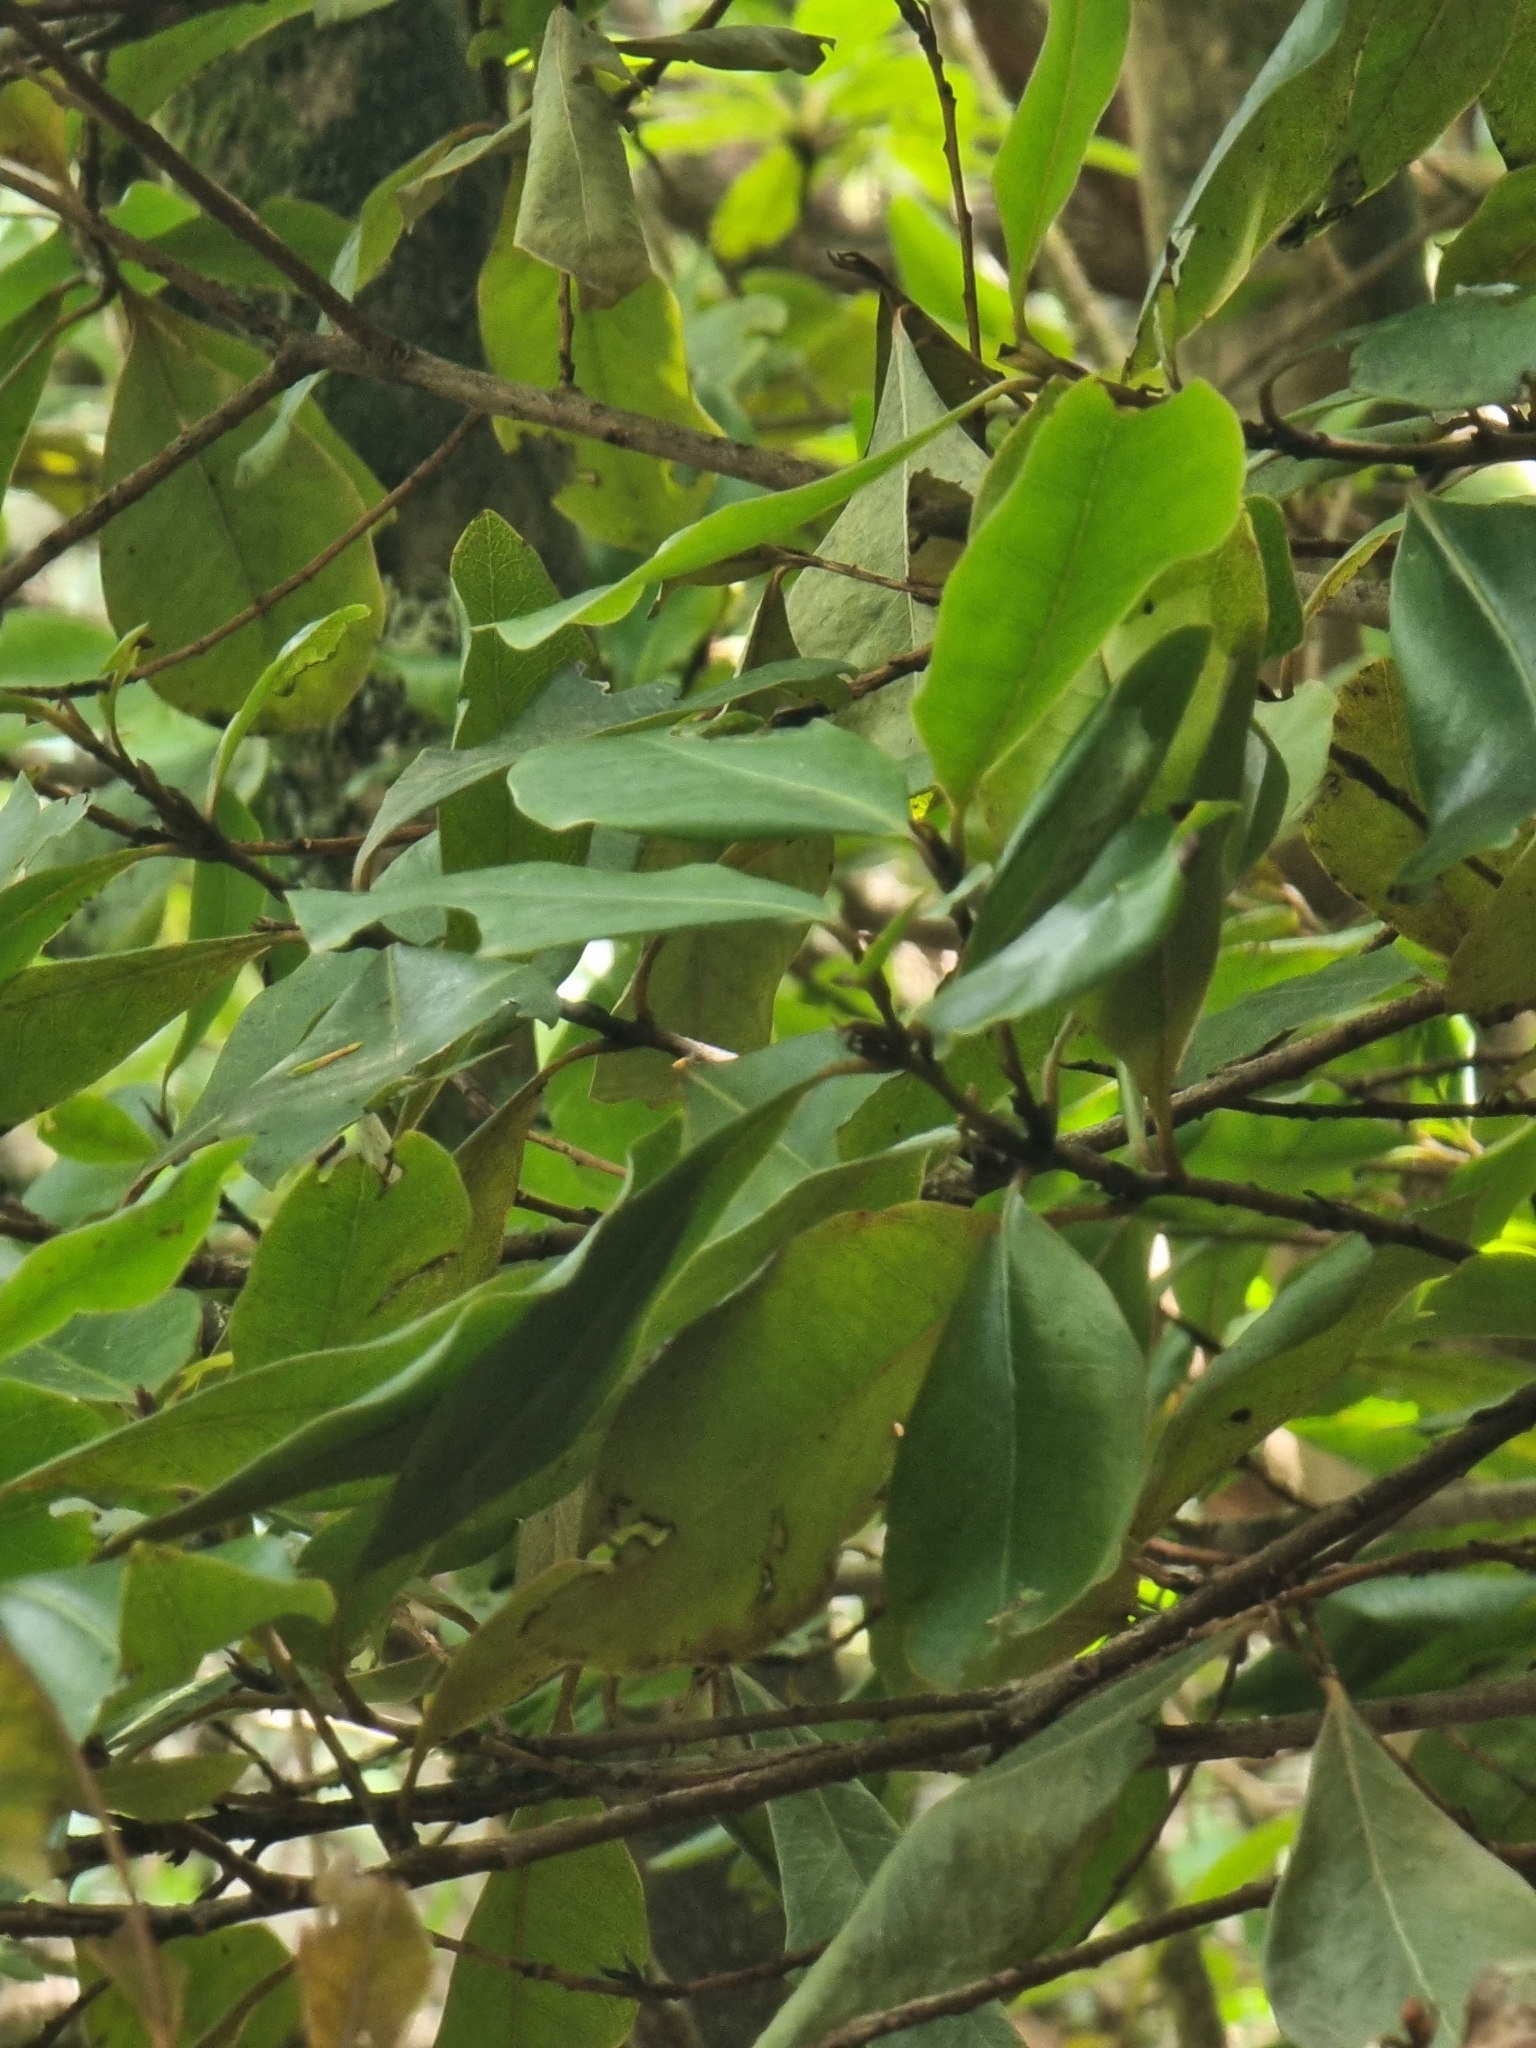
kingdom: Plantae
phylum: Tracheophyta
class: Magnoliopsida
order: Ericales
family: Primulaceae
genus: Heberdenia
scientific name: Heberdenia excelsa
